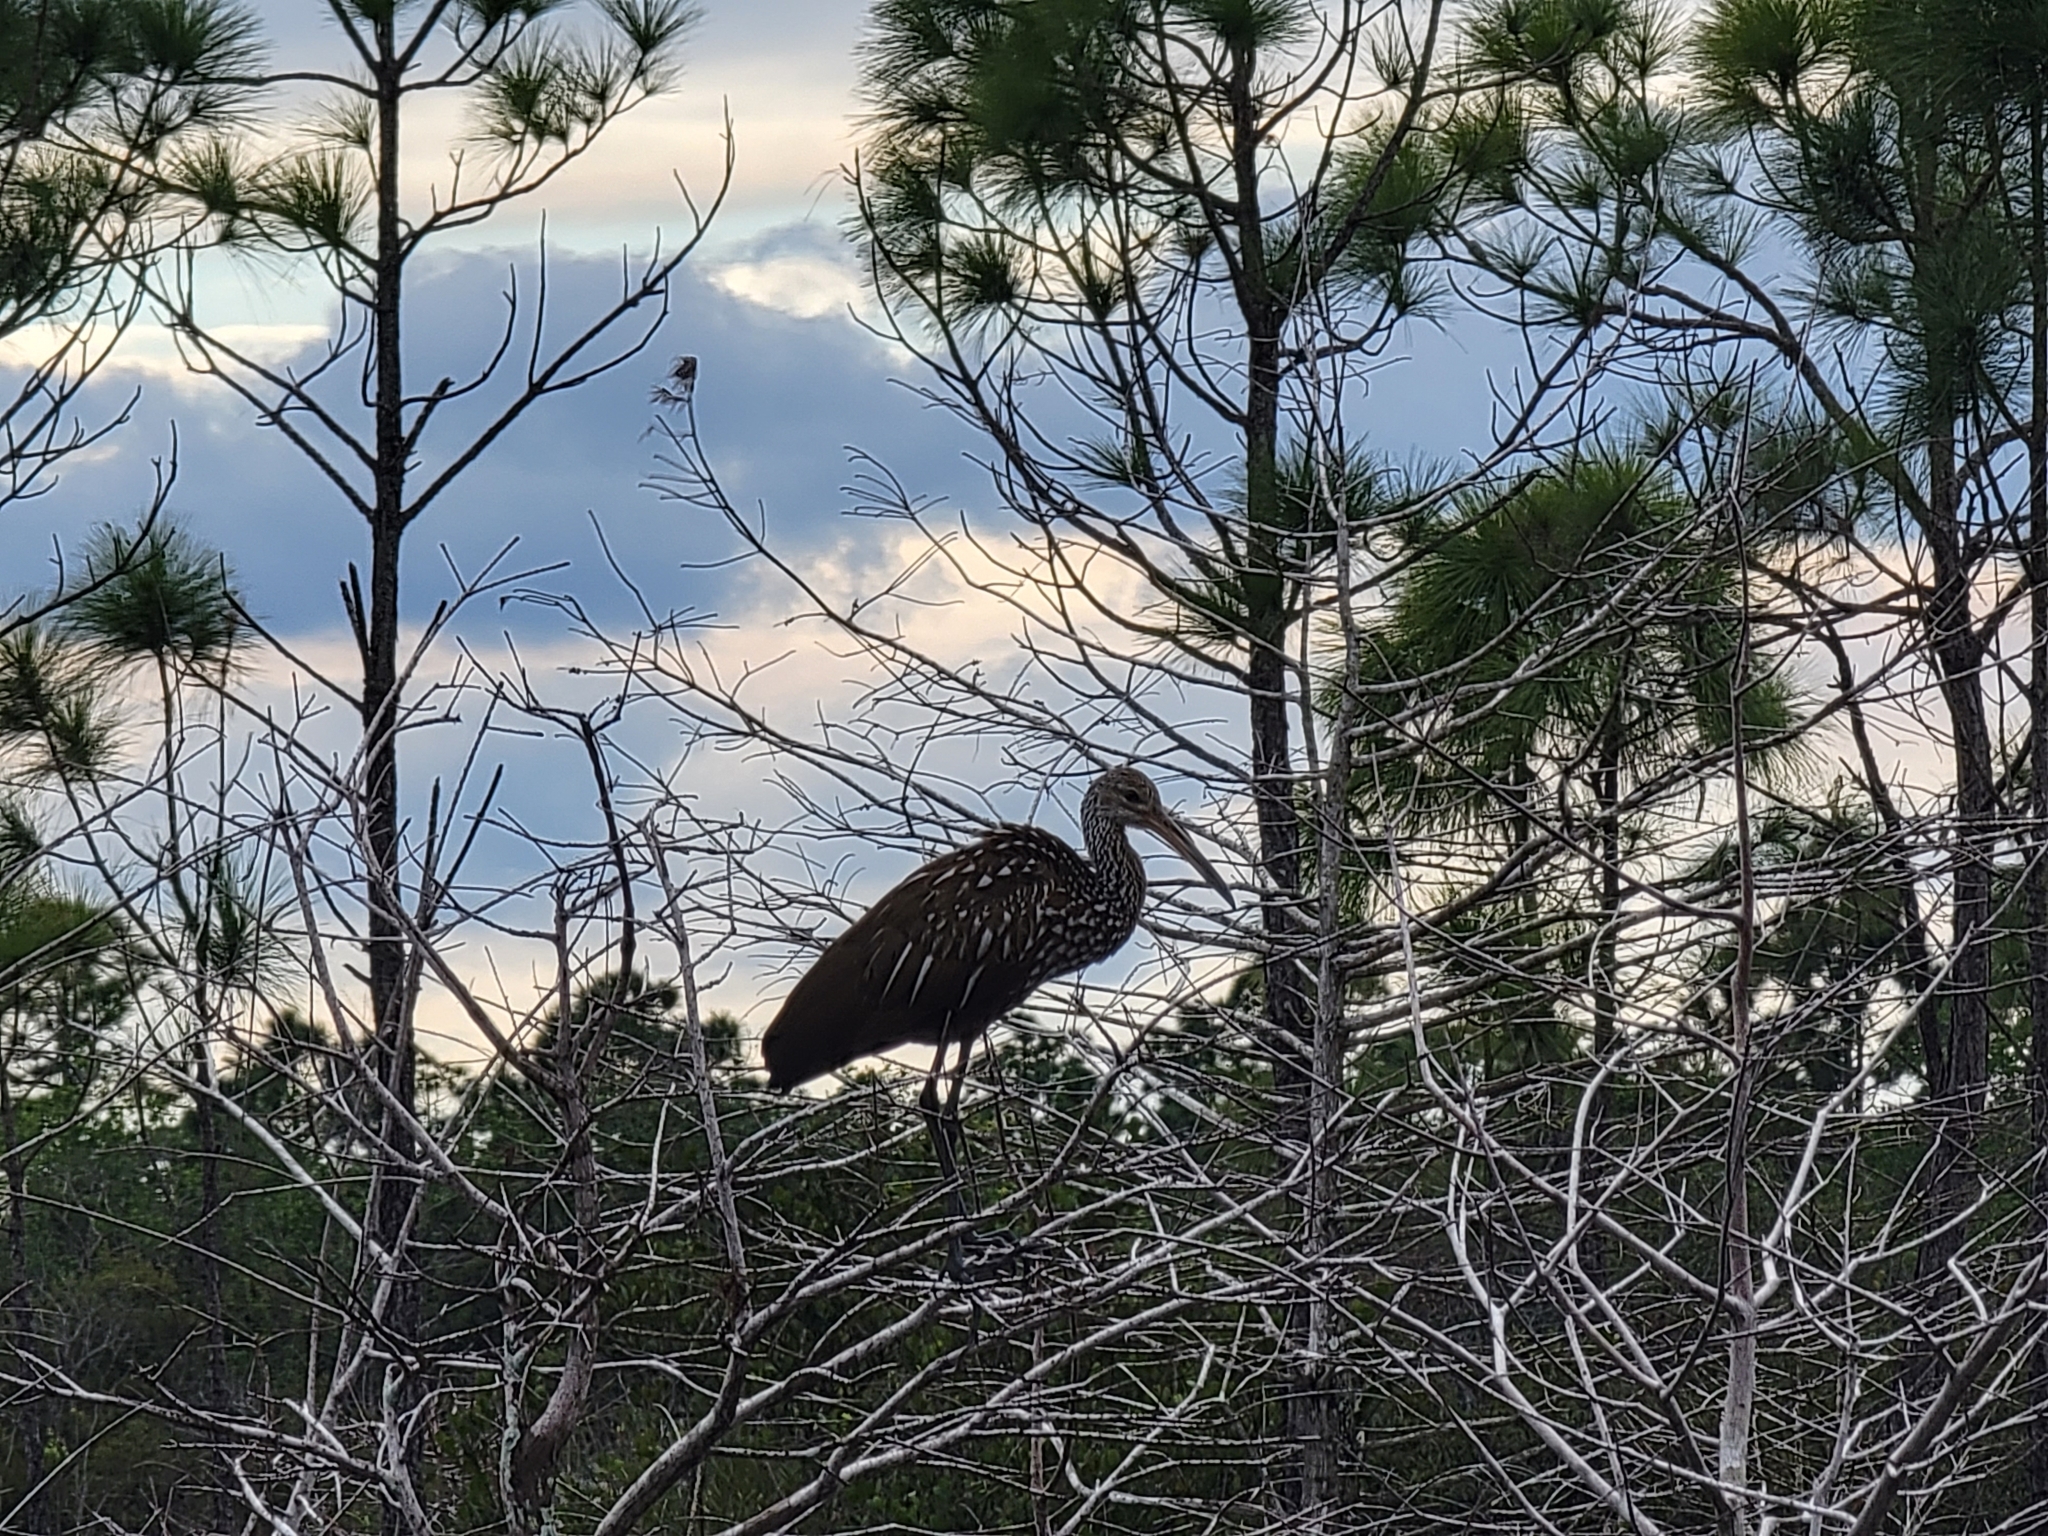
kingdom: Animalia
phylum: Chordata
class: Aves
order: Gruiformes
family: Aramidae
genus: Aramus
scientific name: Aramus guarauna
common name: Limpkin
